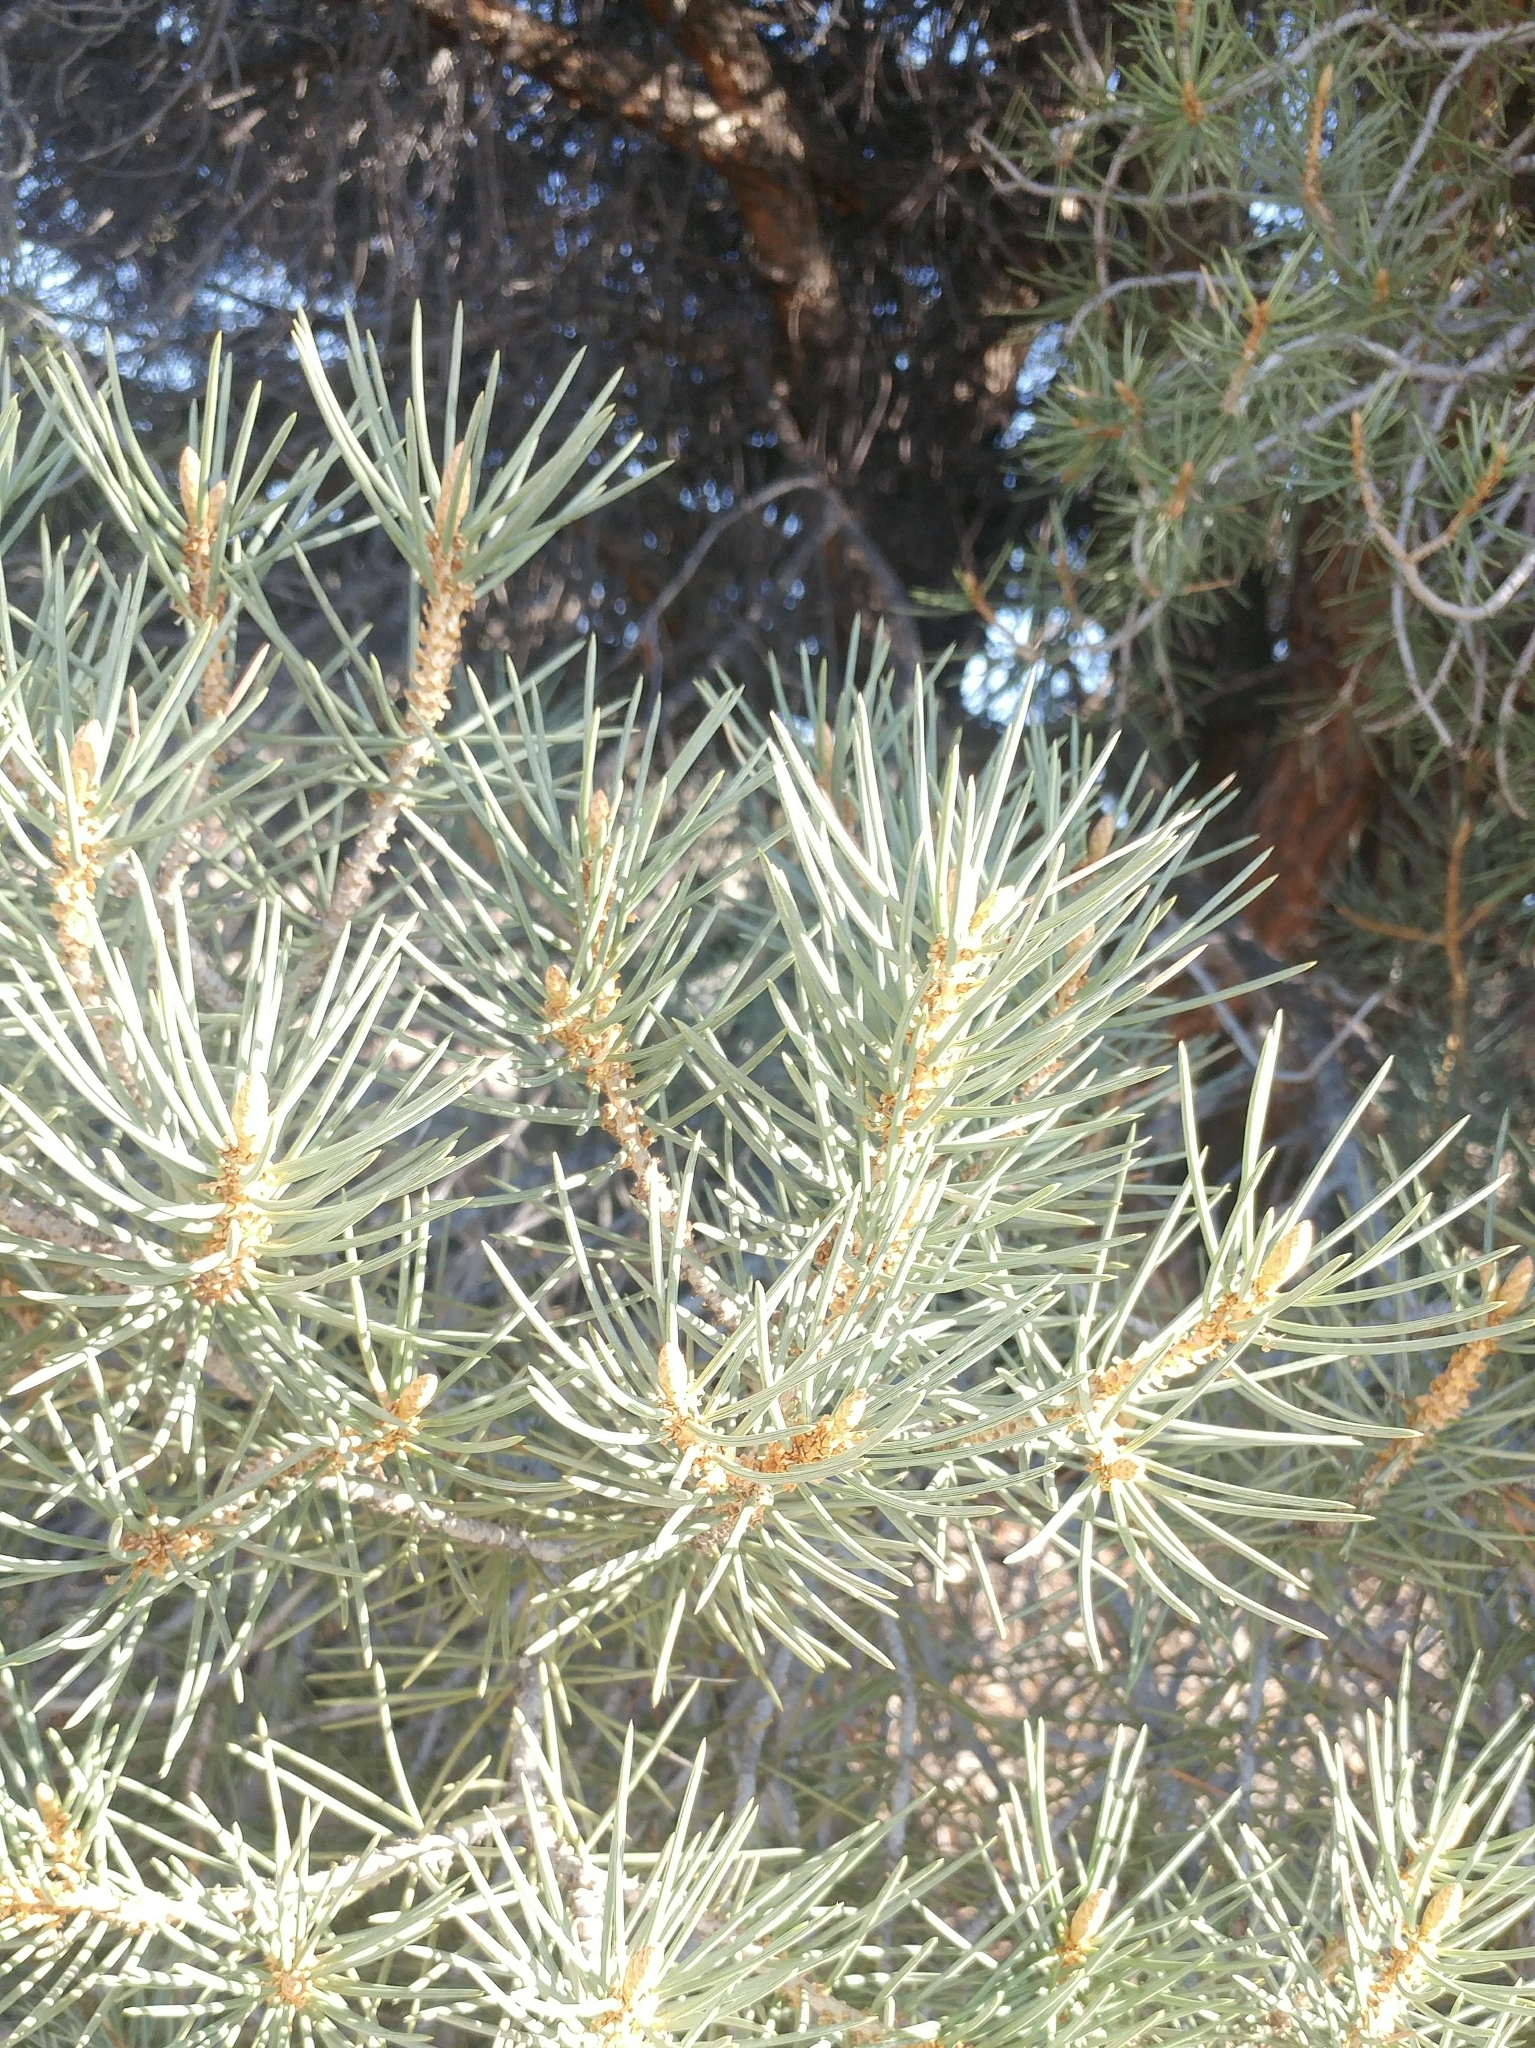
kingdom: Plantae
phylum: Tracheophyta
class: Pinopsida
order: Pinales
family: Pinaceae
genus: Pinus
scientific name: Pinus monophylla
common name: One-leaved nut pine
